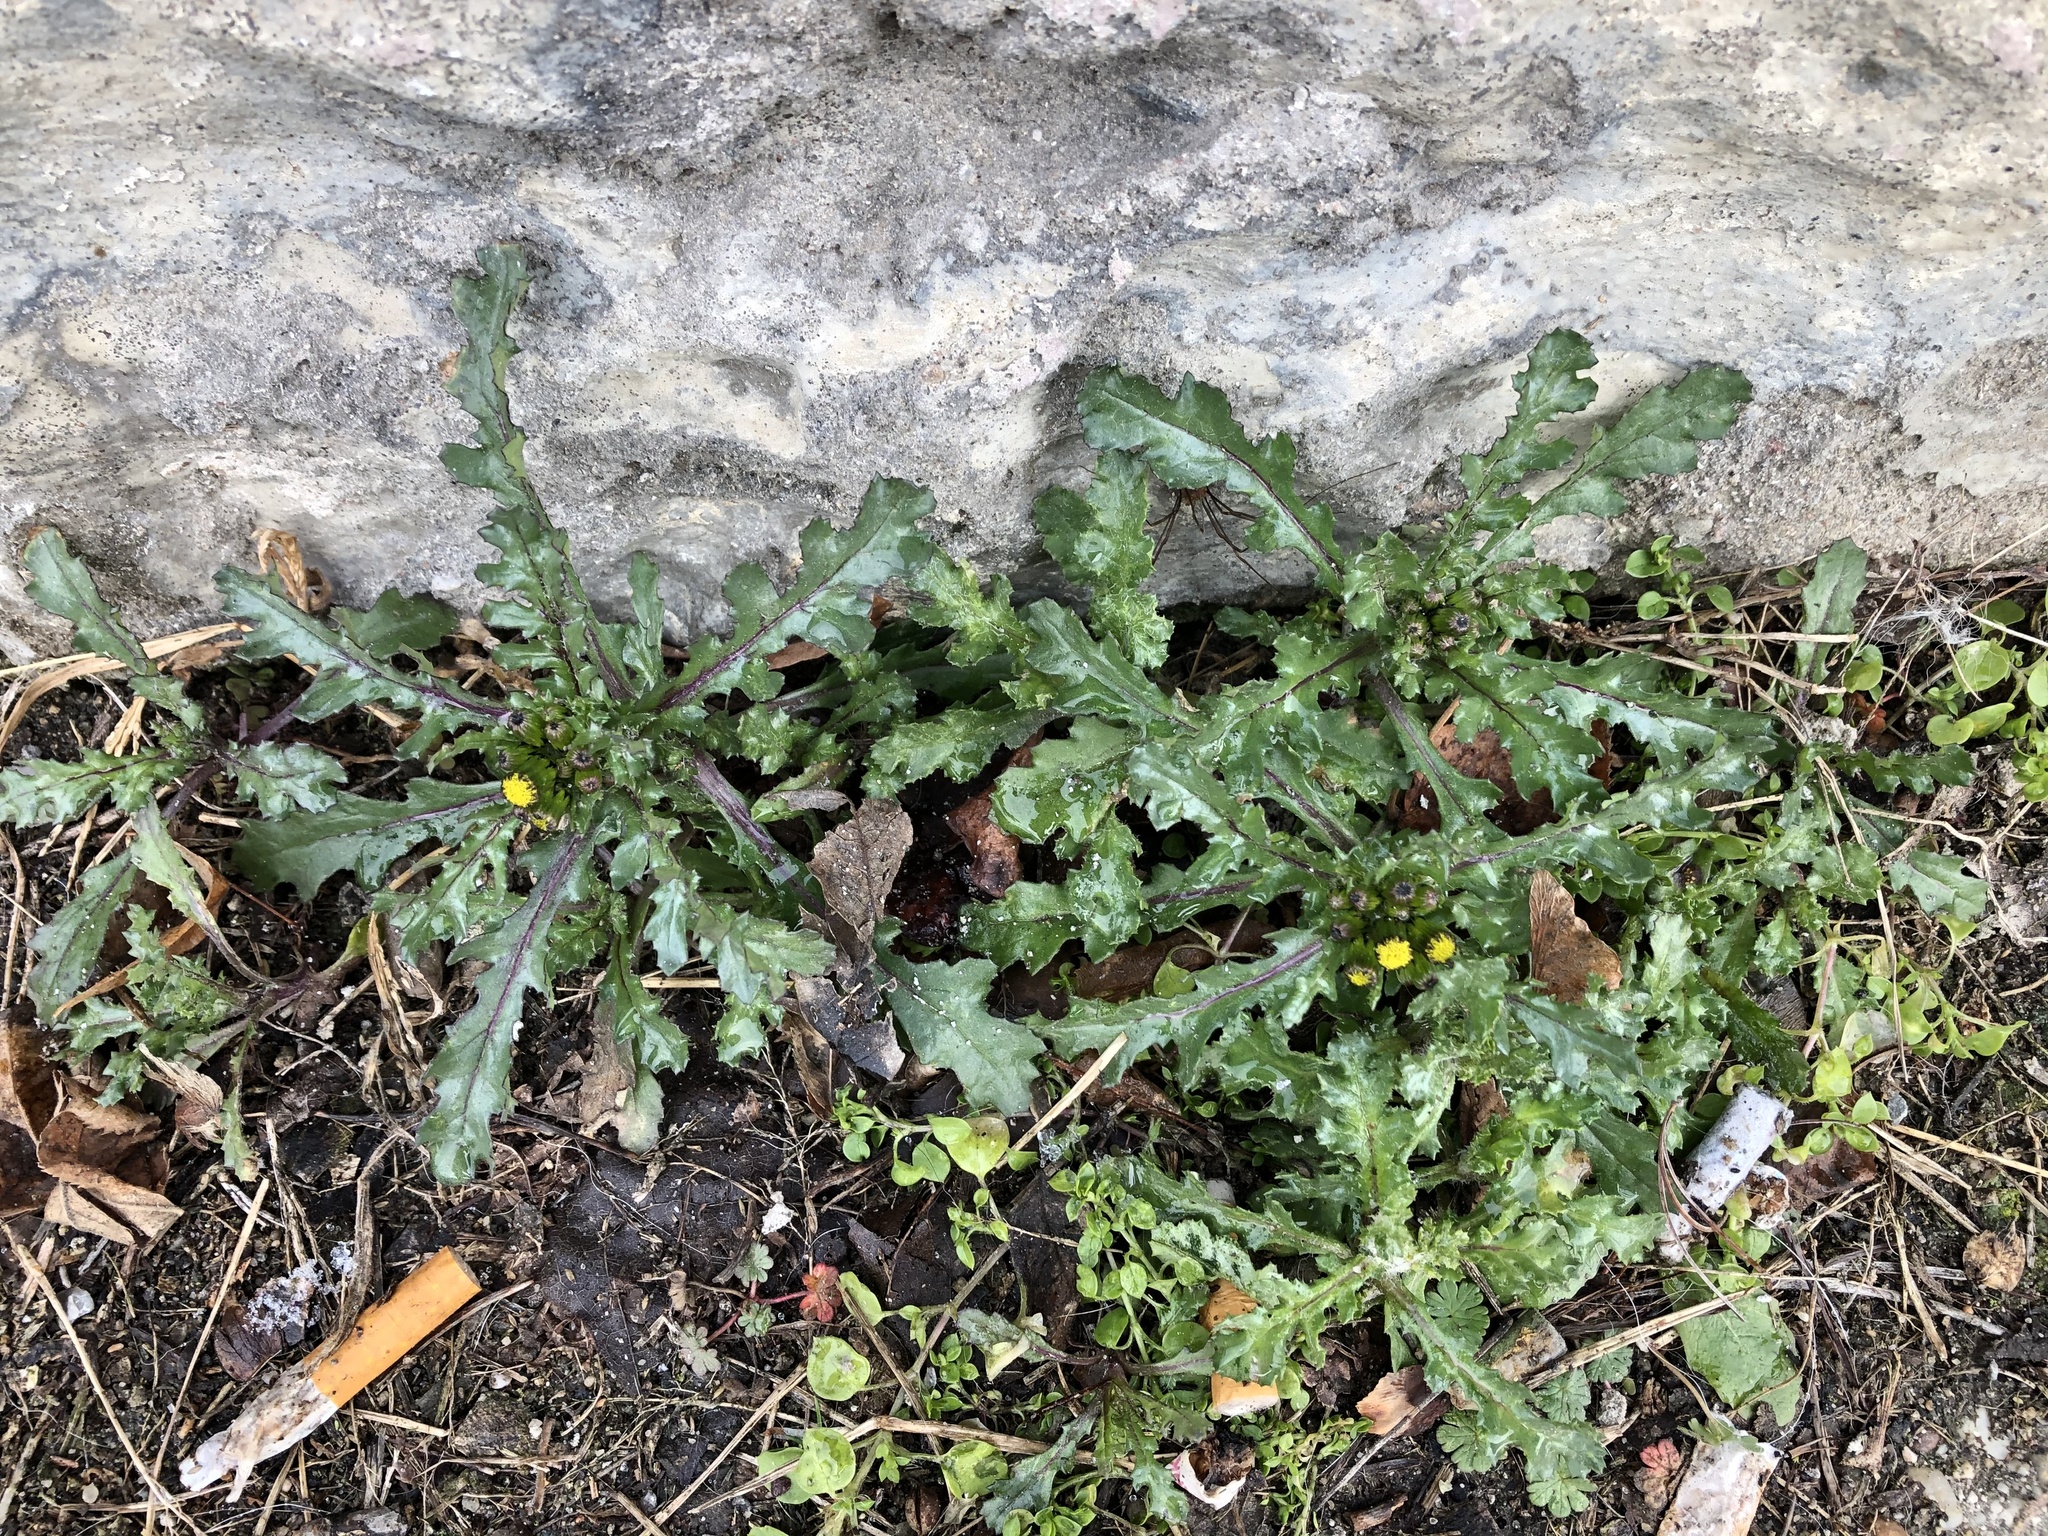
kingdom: Plantae
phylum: Tracheophyta
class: Magnoliopsida
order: Asterales
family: Asteraceae
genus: Senecio
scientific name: Senecio vulgaris
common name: Old-man-in-the-spring
